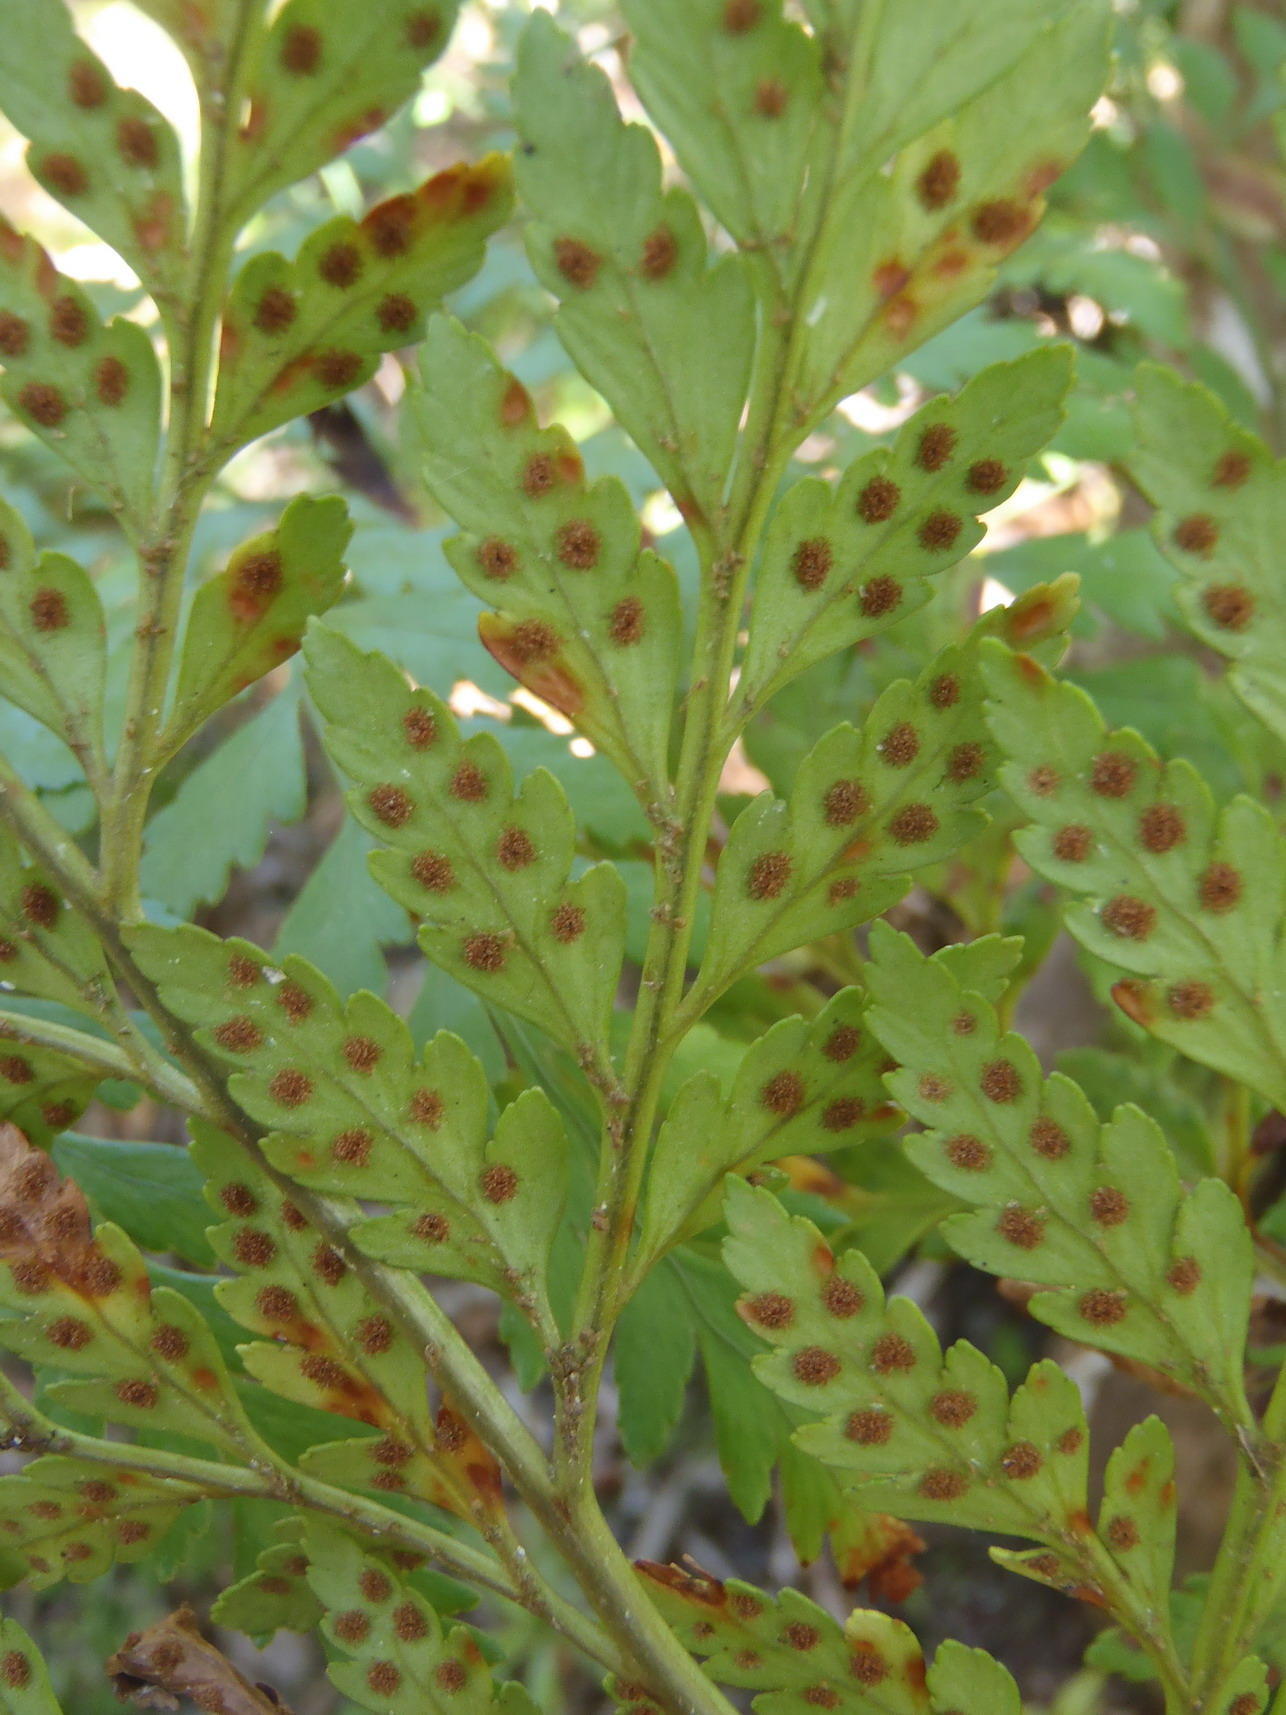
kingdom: Plantae
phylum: Tracheophyta
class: Polypodiopsida
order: Polypodiales
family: Dryopteridaceae
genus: Rumohra
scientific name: Rumohra adiantiformis
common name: Leather fern
